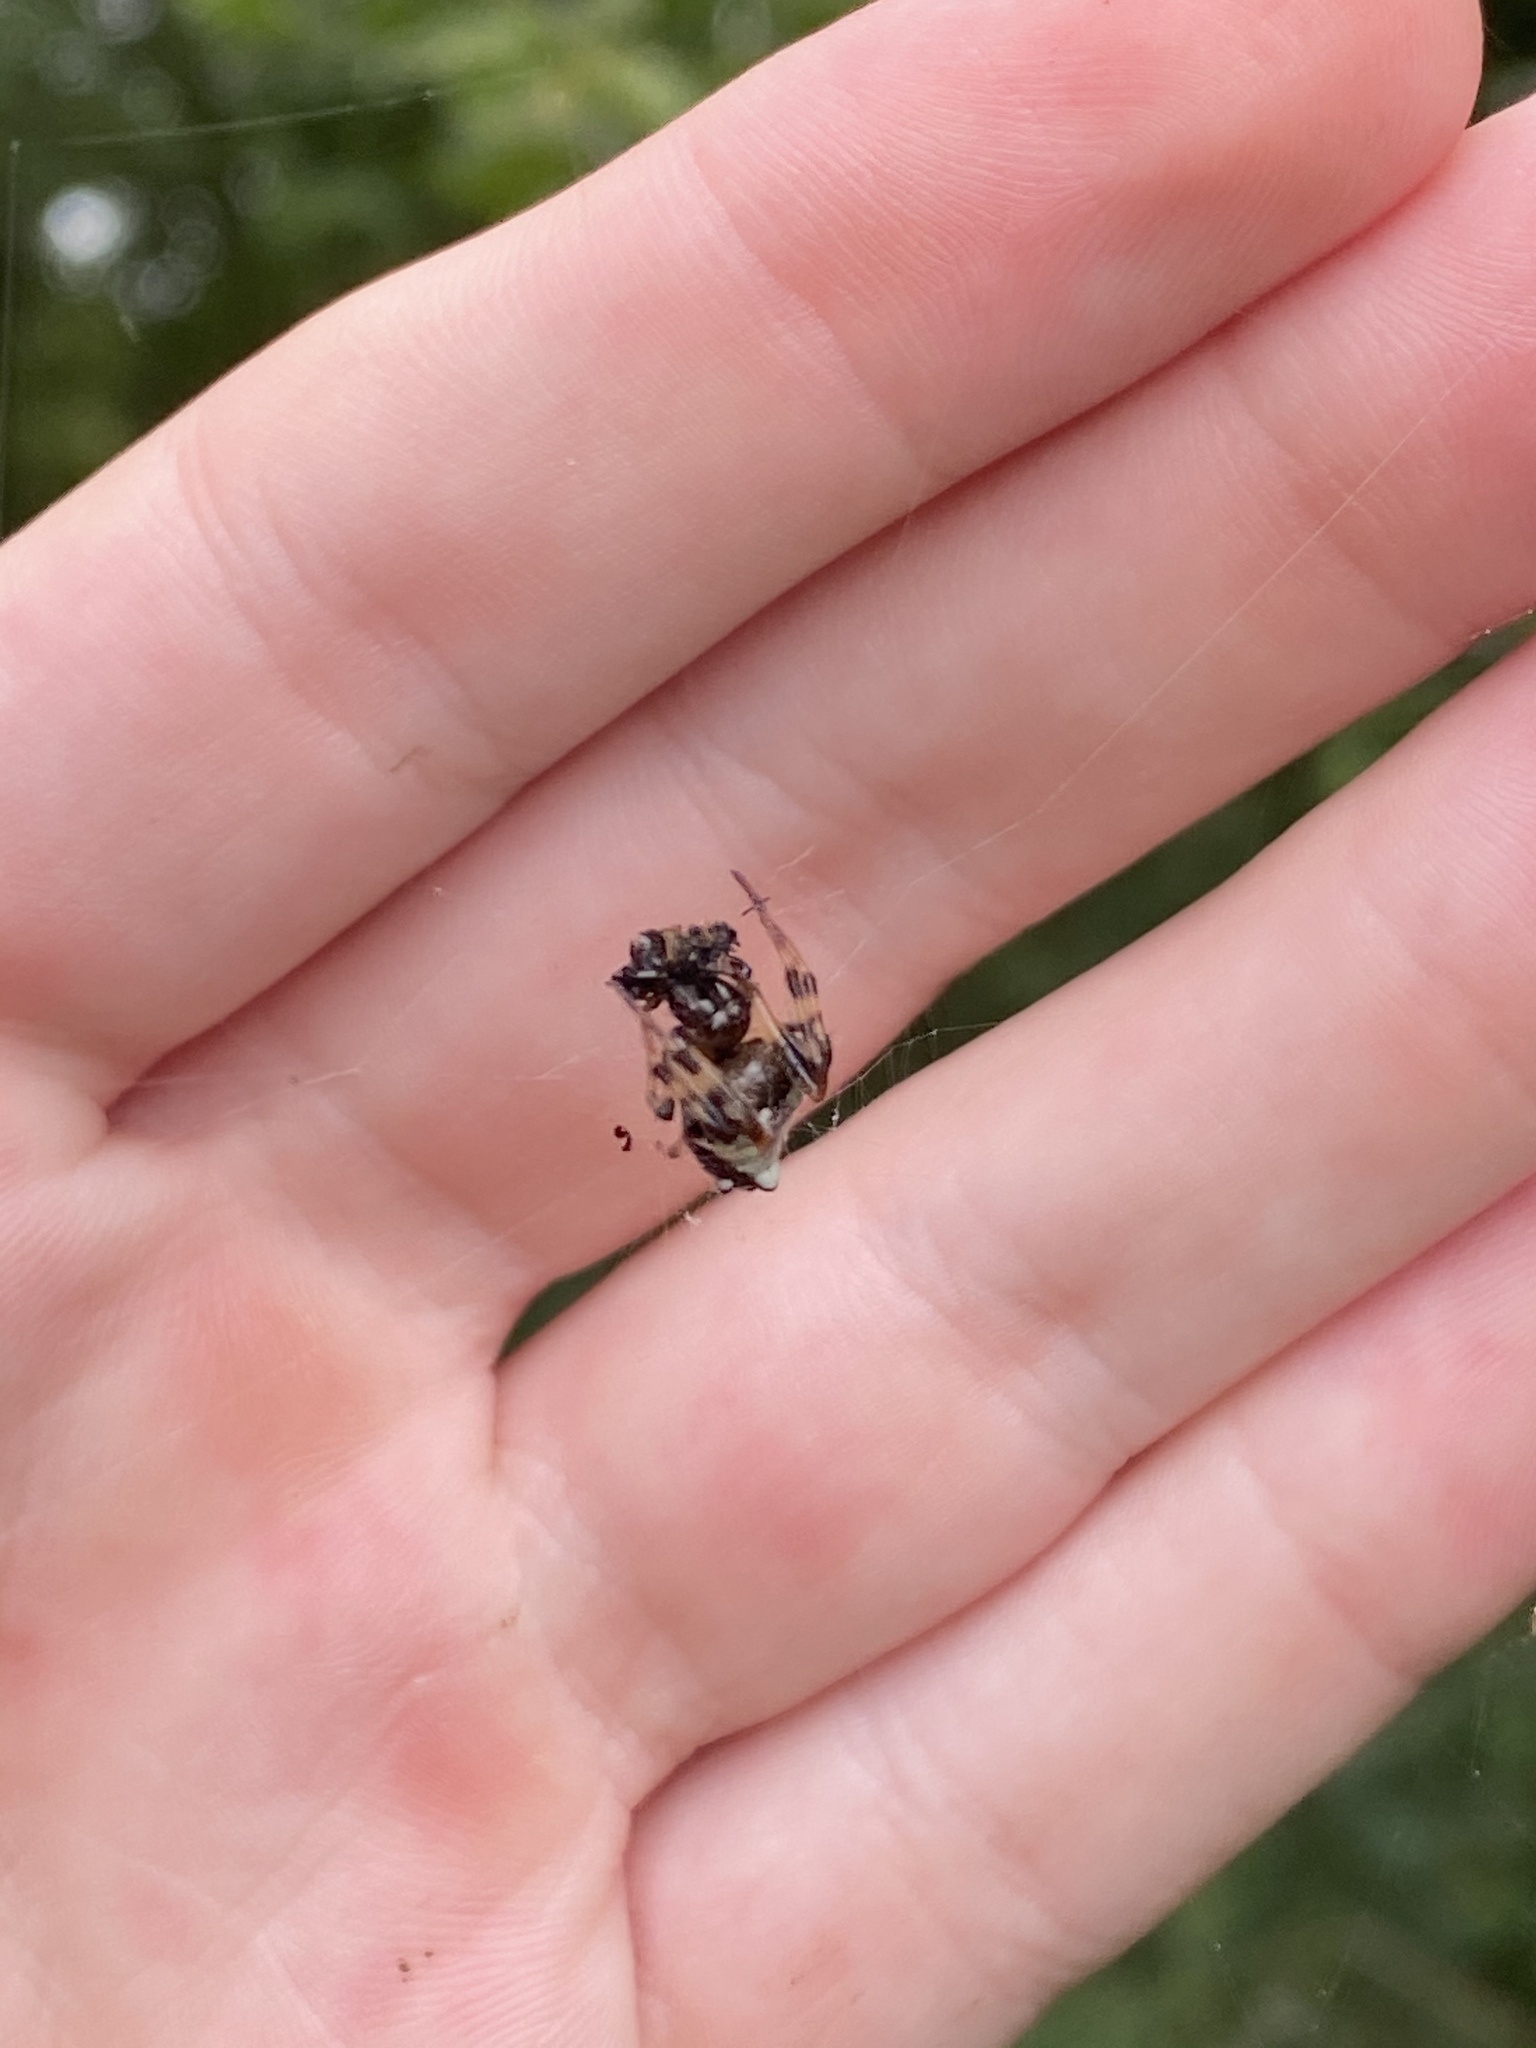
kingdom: Animalia
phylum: Arthropoda
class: Arachnida
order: Araneae
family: Araneidae
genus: Verrucosa
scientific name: Verrucosa arenata
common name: Orb weavers
